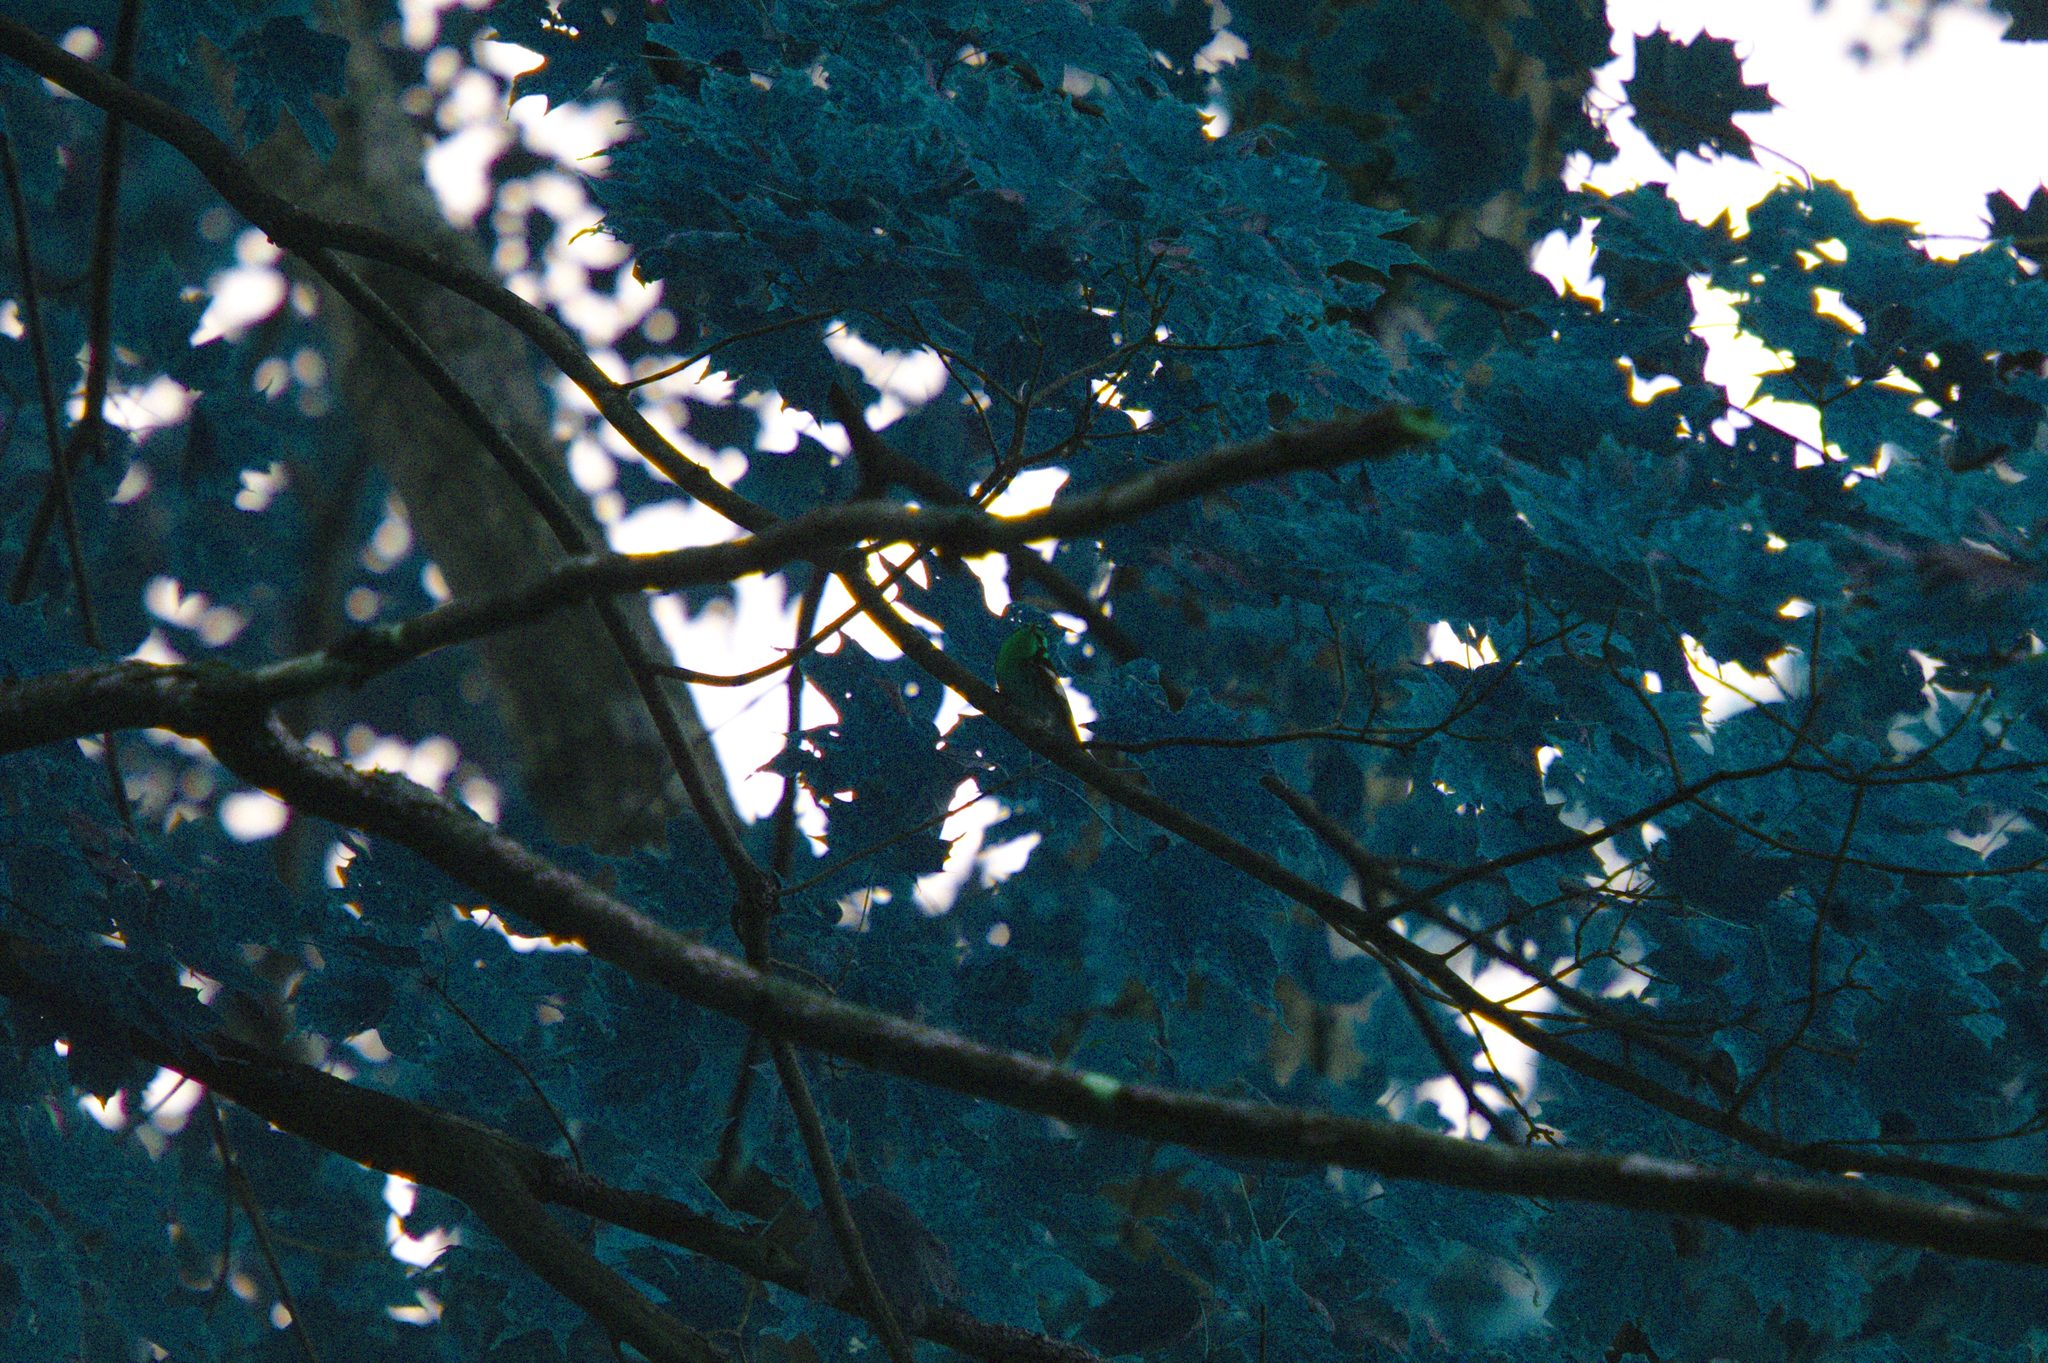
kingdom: Animalia
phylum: Chordata
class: Aves
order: Passeriformes
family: Parulidae
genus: Setophaga
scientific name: Setophaga fusca
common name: Blackburnian warbler
